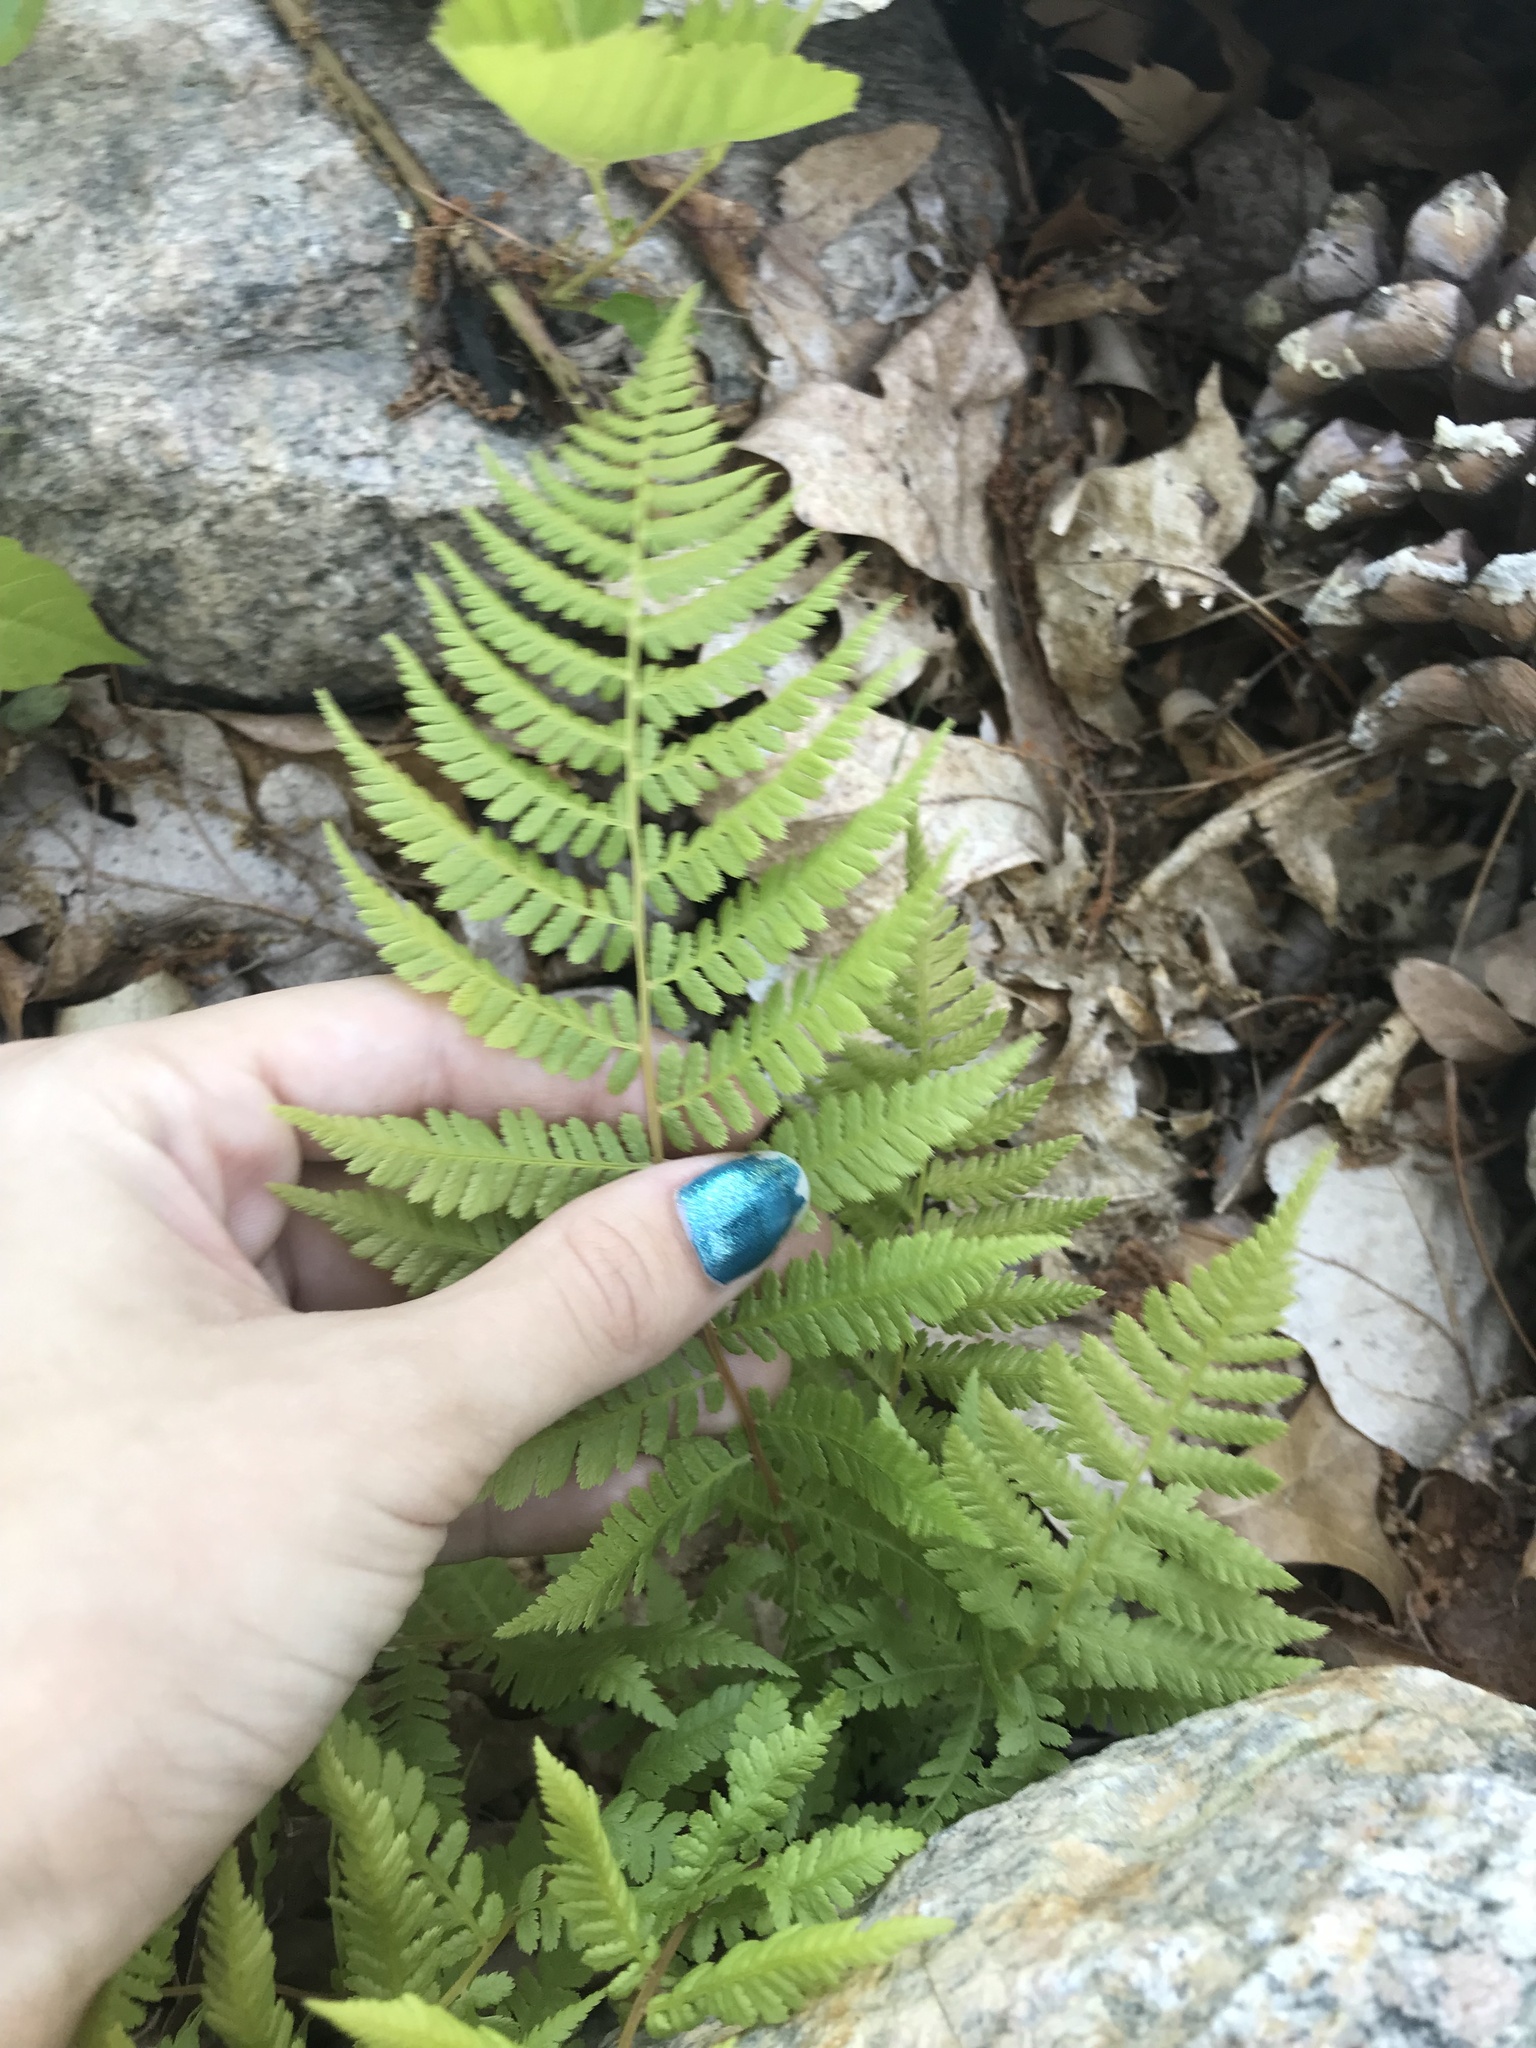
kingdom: Plantae
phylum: Tracheophyta
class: Polypodiopsida
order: Polypodiales
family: Athyriaceae
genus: Athyrium
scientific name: Athyrium angustum
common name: Northern lady fern
